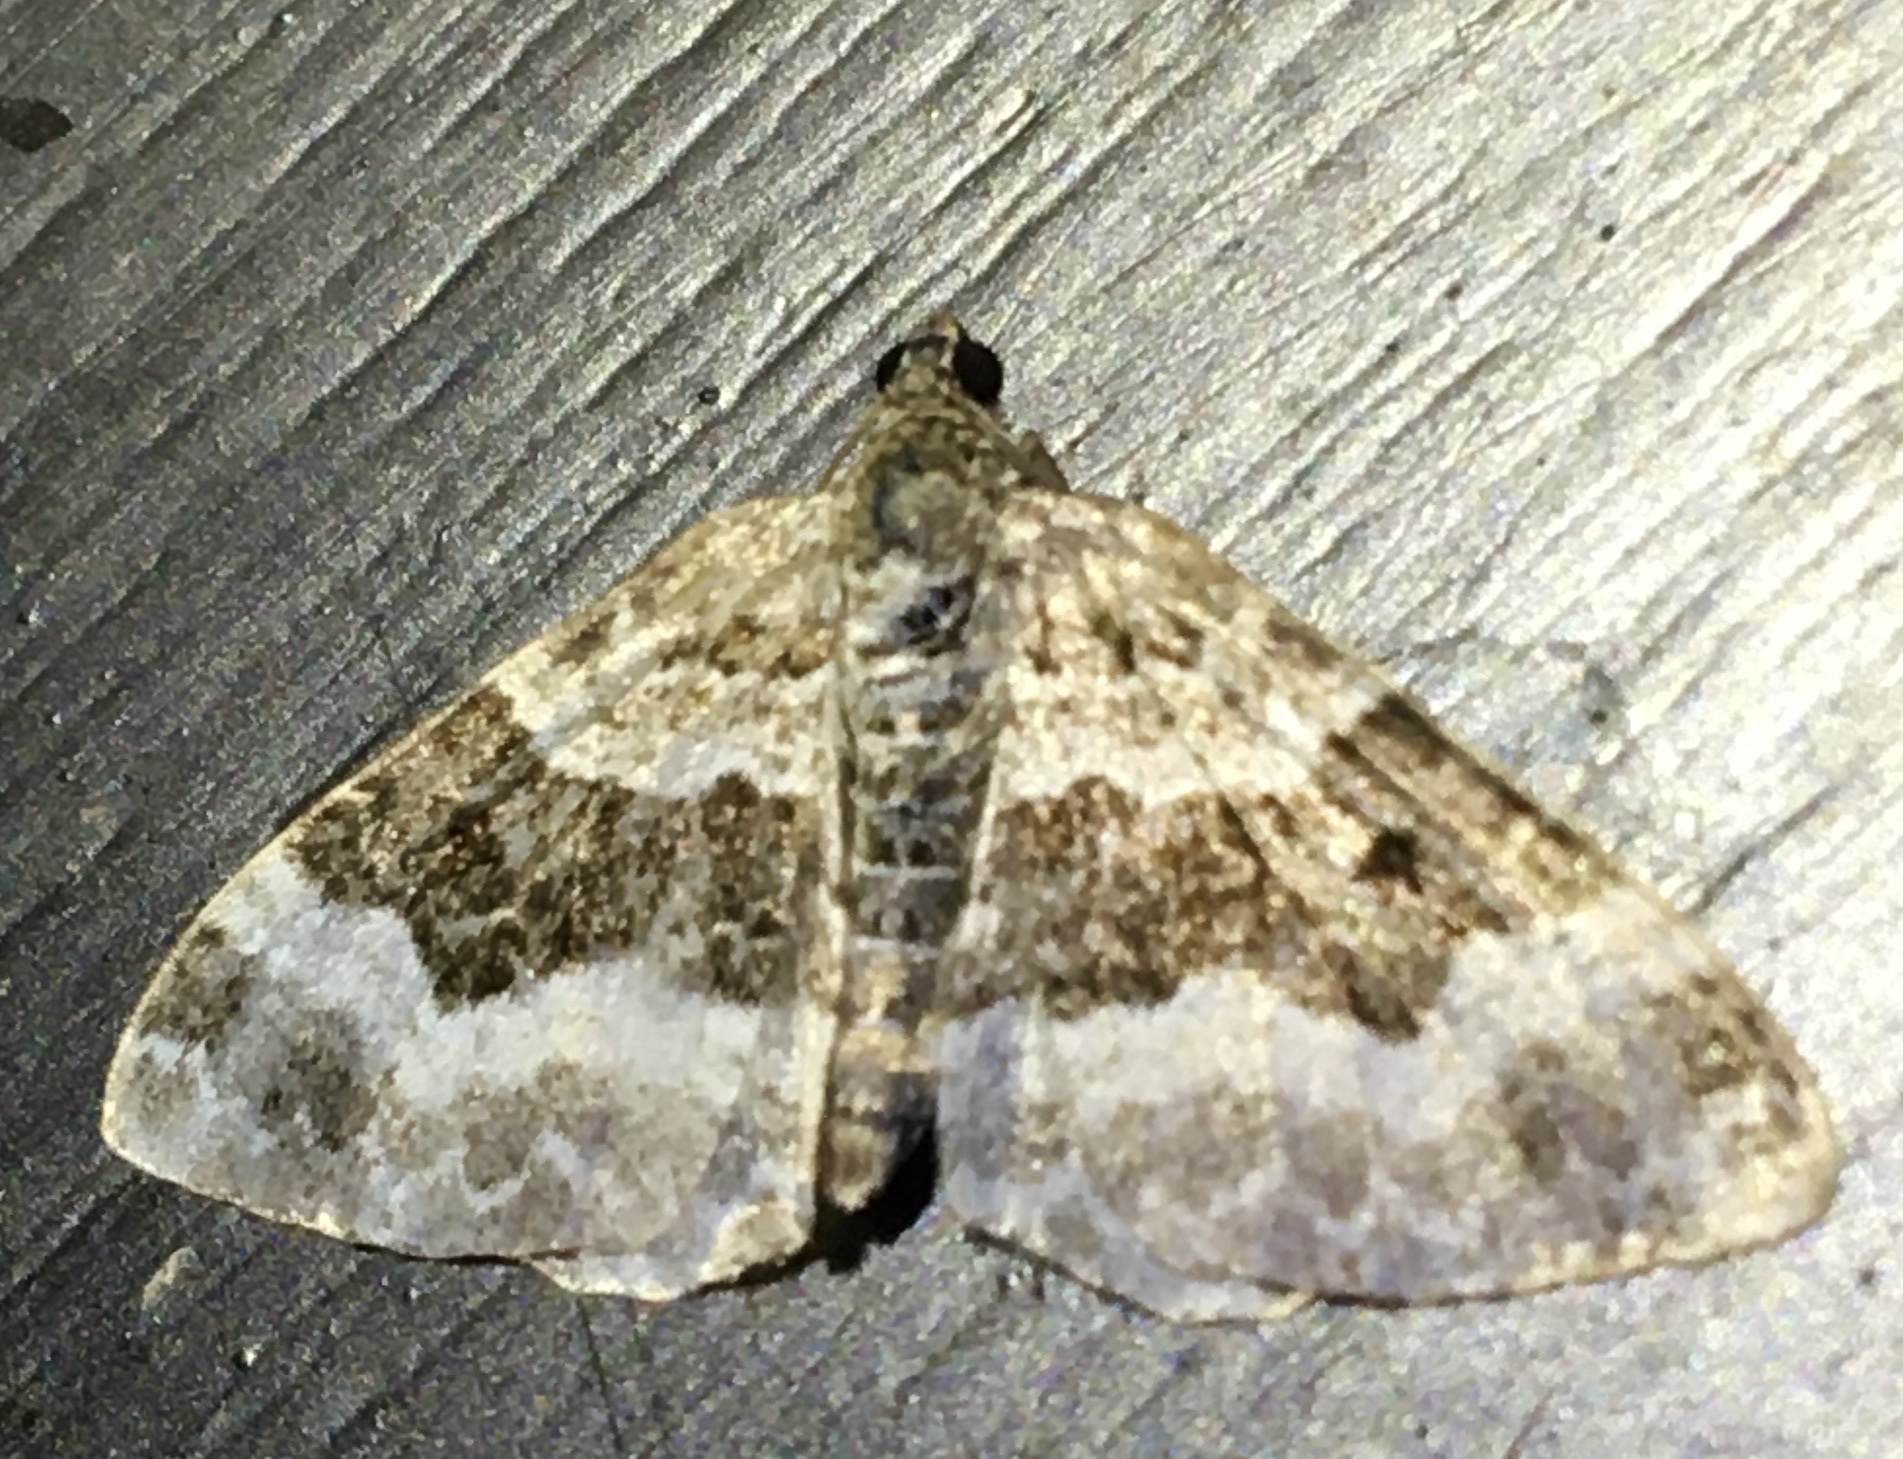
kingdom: Animalia
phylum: Arthropoda
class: Insecta
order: Lepidoptera
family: Geometridae
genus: Epirrhoe
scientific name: Epirrhoe alternata
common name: Common carpet
